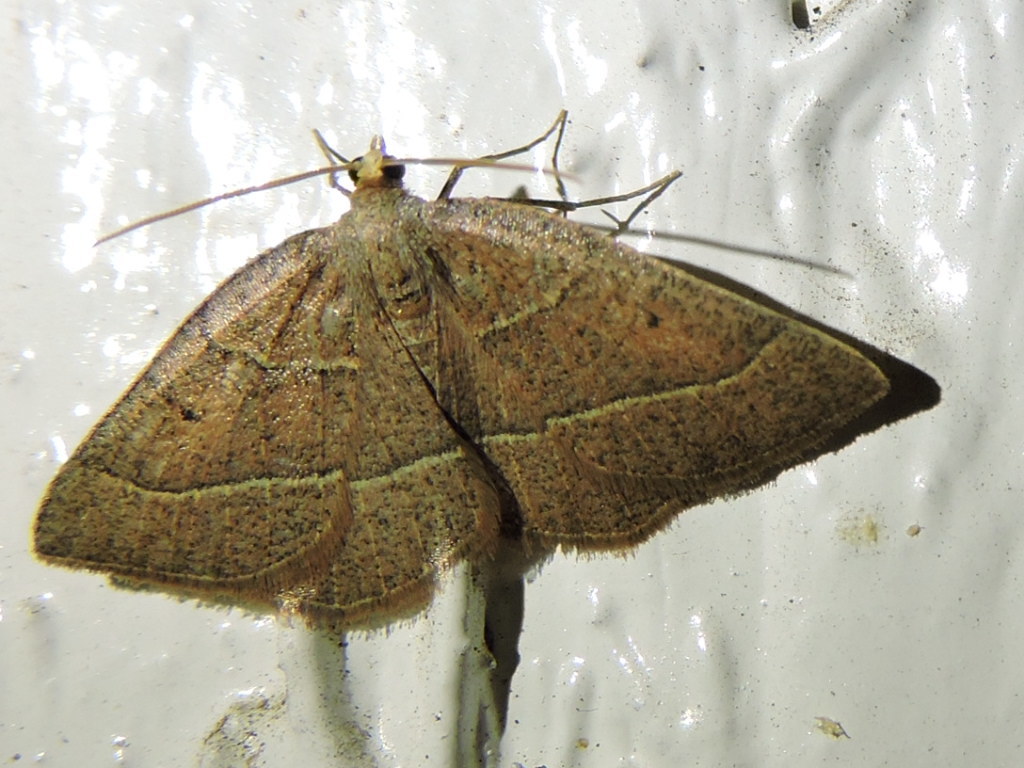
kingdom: Animalia
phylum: Arthropoda
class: Insecta
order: Lepidoptera
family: Geometridae
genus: Episemasia
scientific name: Episemasia cervinaria
